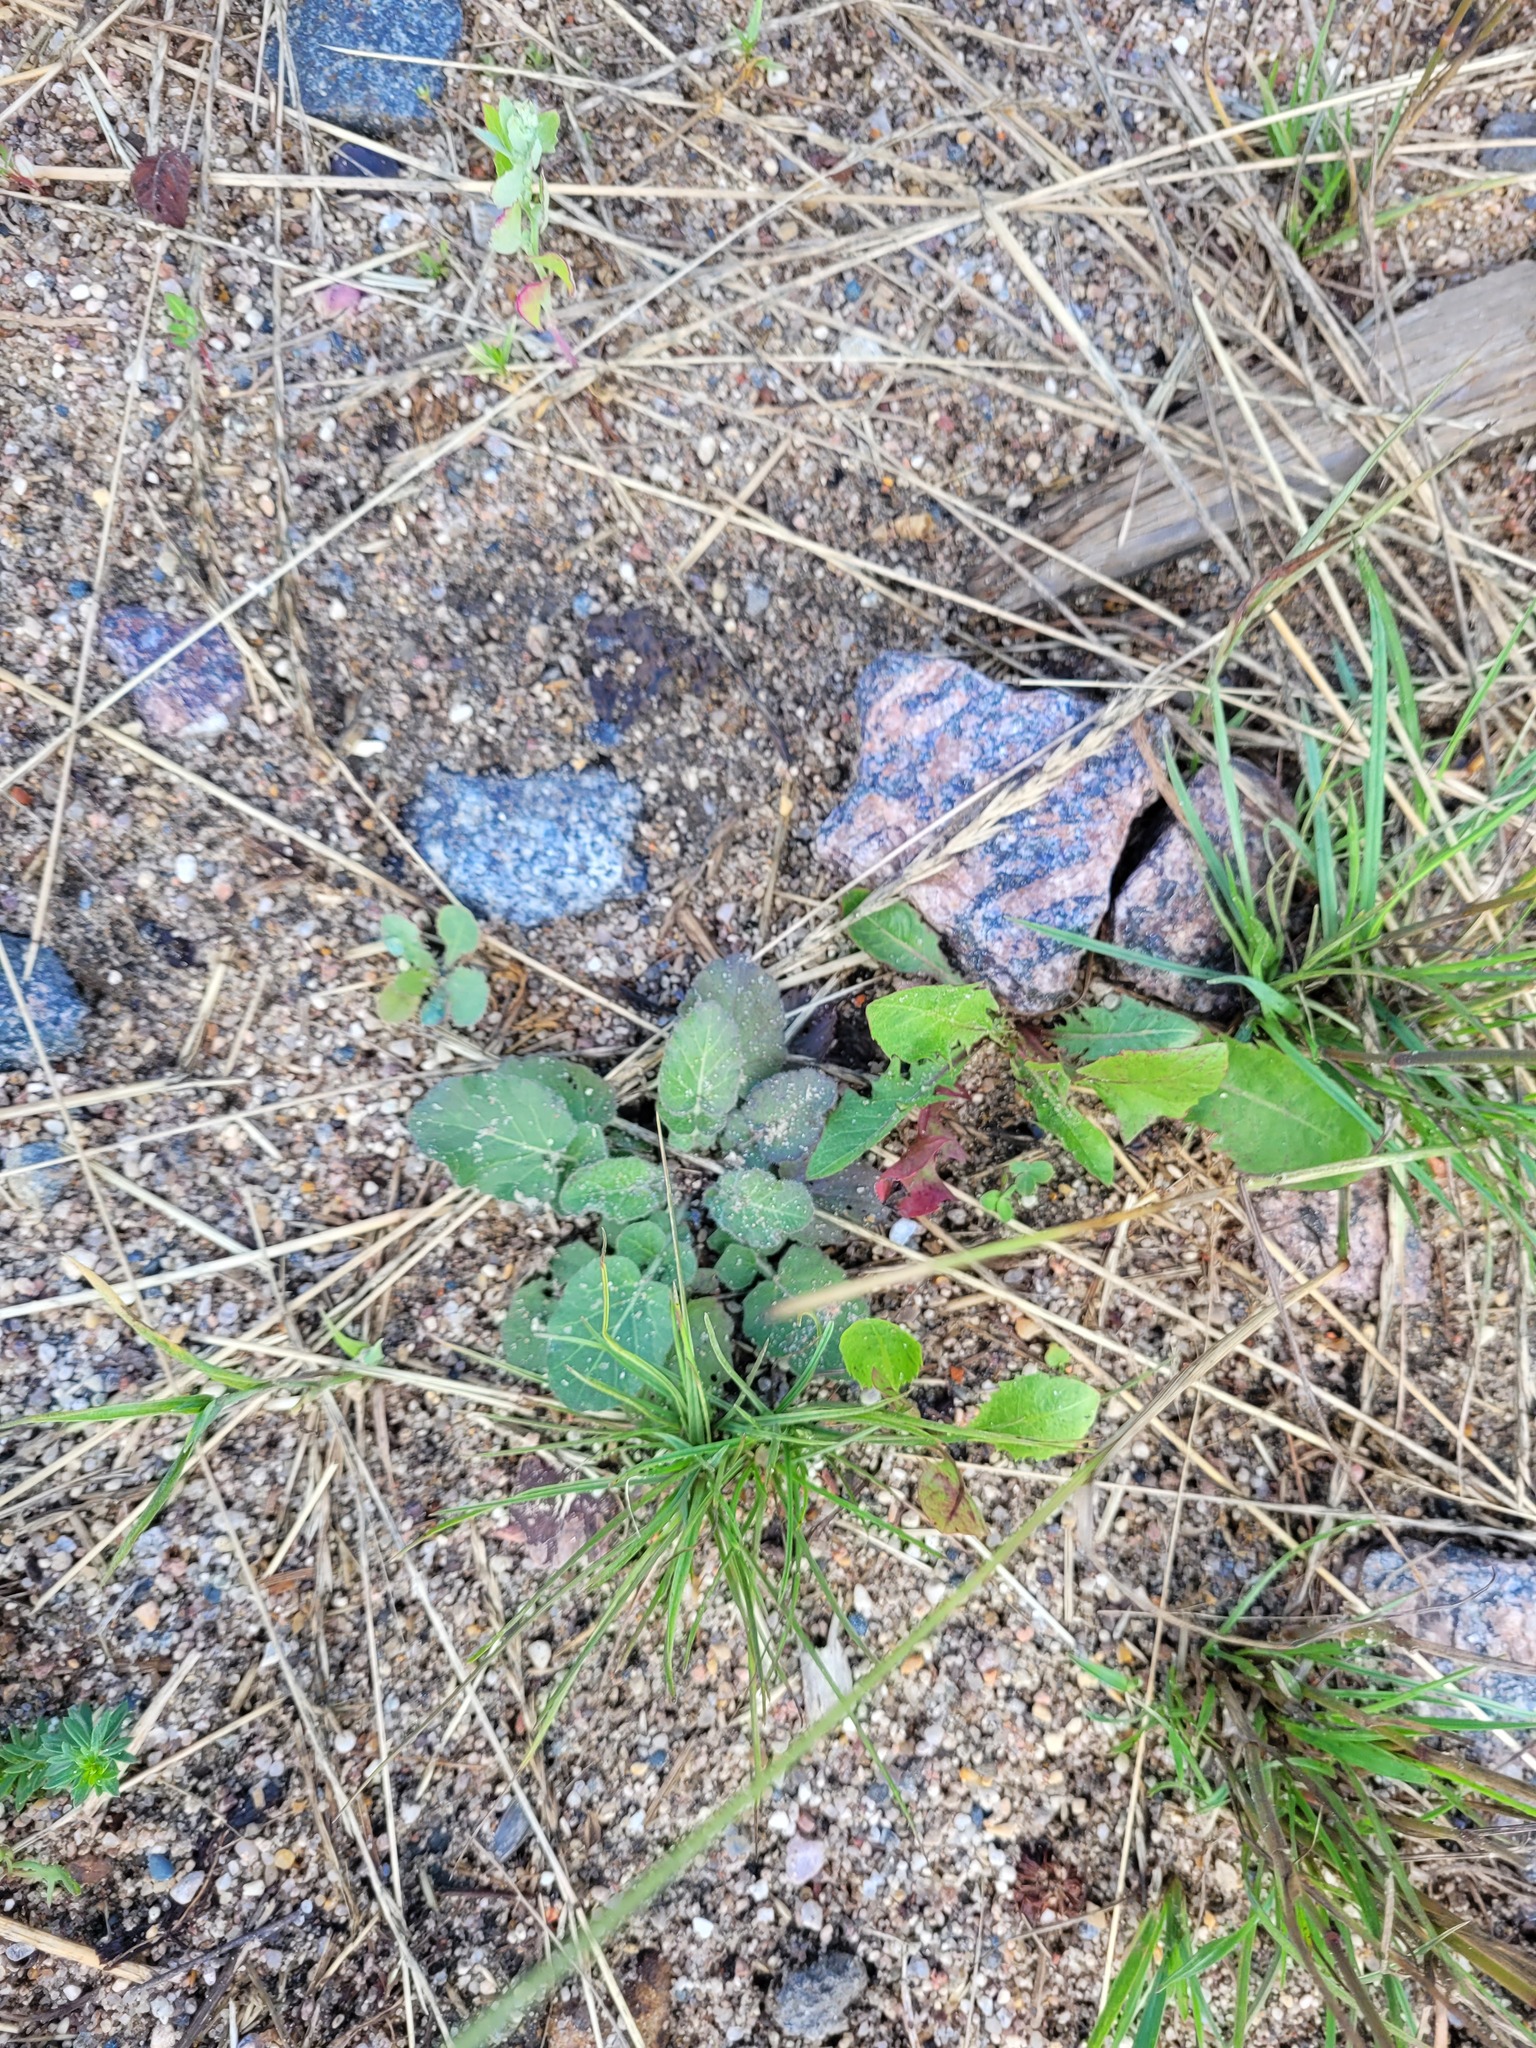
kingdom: Plantae
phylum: Tracheophyta
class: Magnoliopsida
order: Brassicales
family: Brassicaceae
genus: Barbarea
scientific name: Barbarea vulgaris
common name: Cressy-greens
